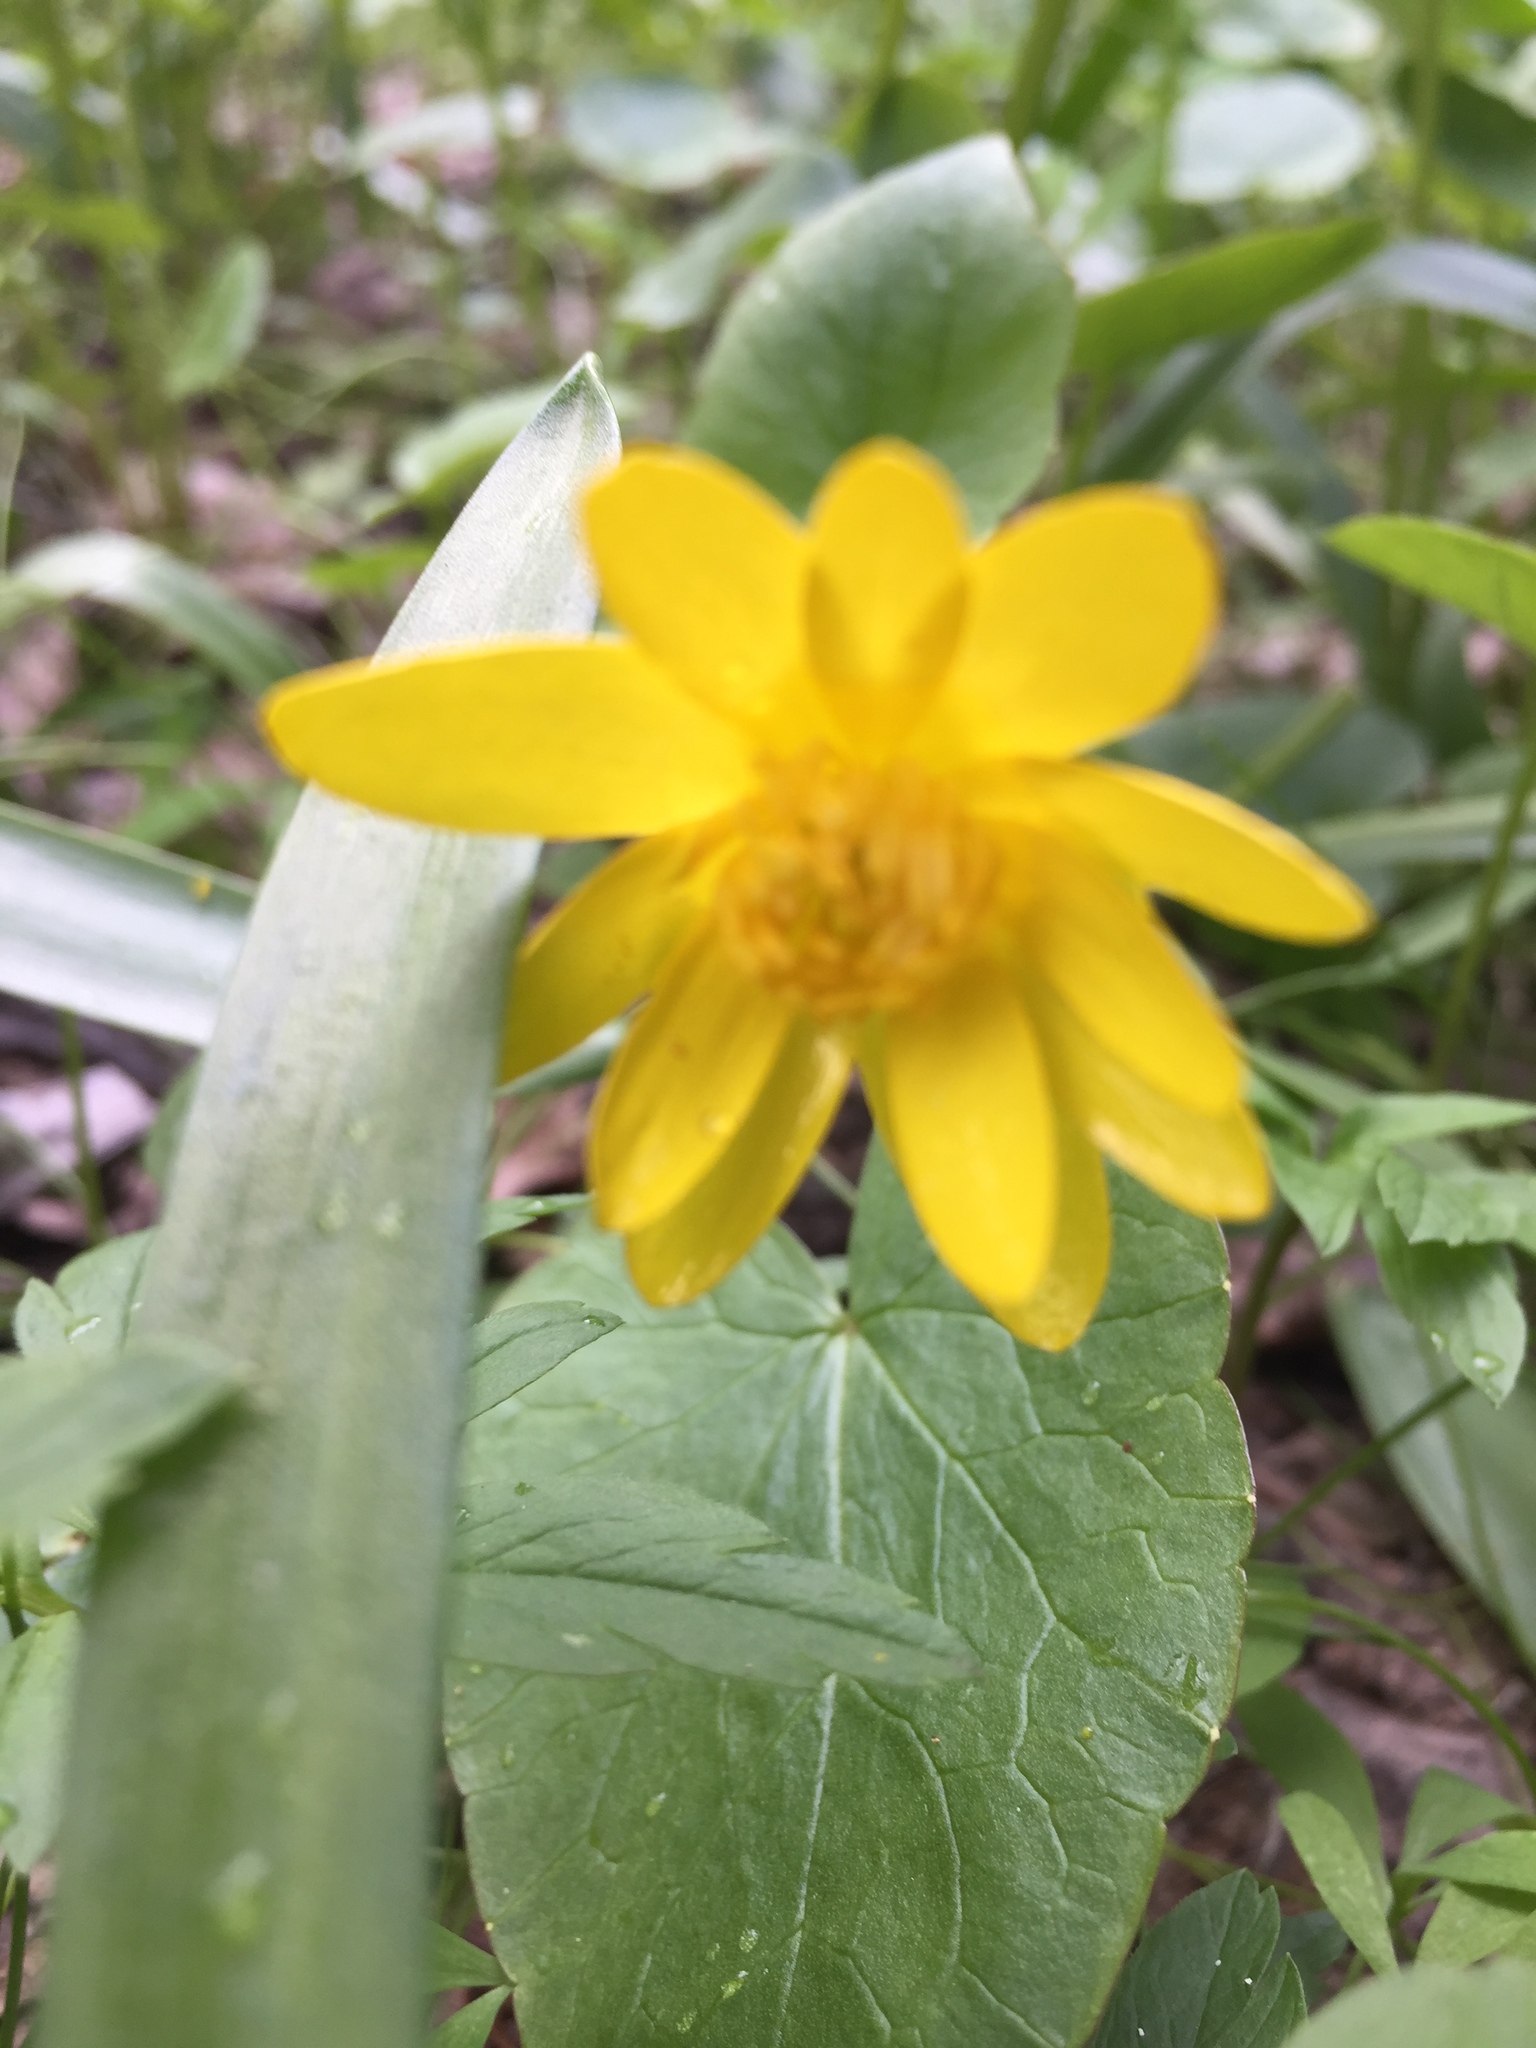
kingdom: Plantae
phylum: Tracheophyta
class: Magnoliopsida
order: Ranunculales
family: Ranunculaceae
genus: Ficaria
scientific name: Ficaria verna
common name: Lesser celandine
